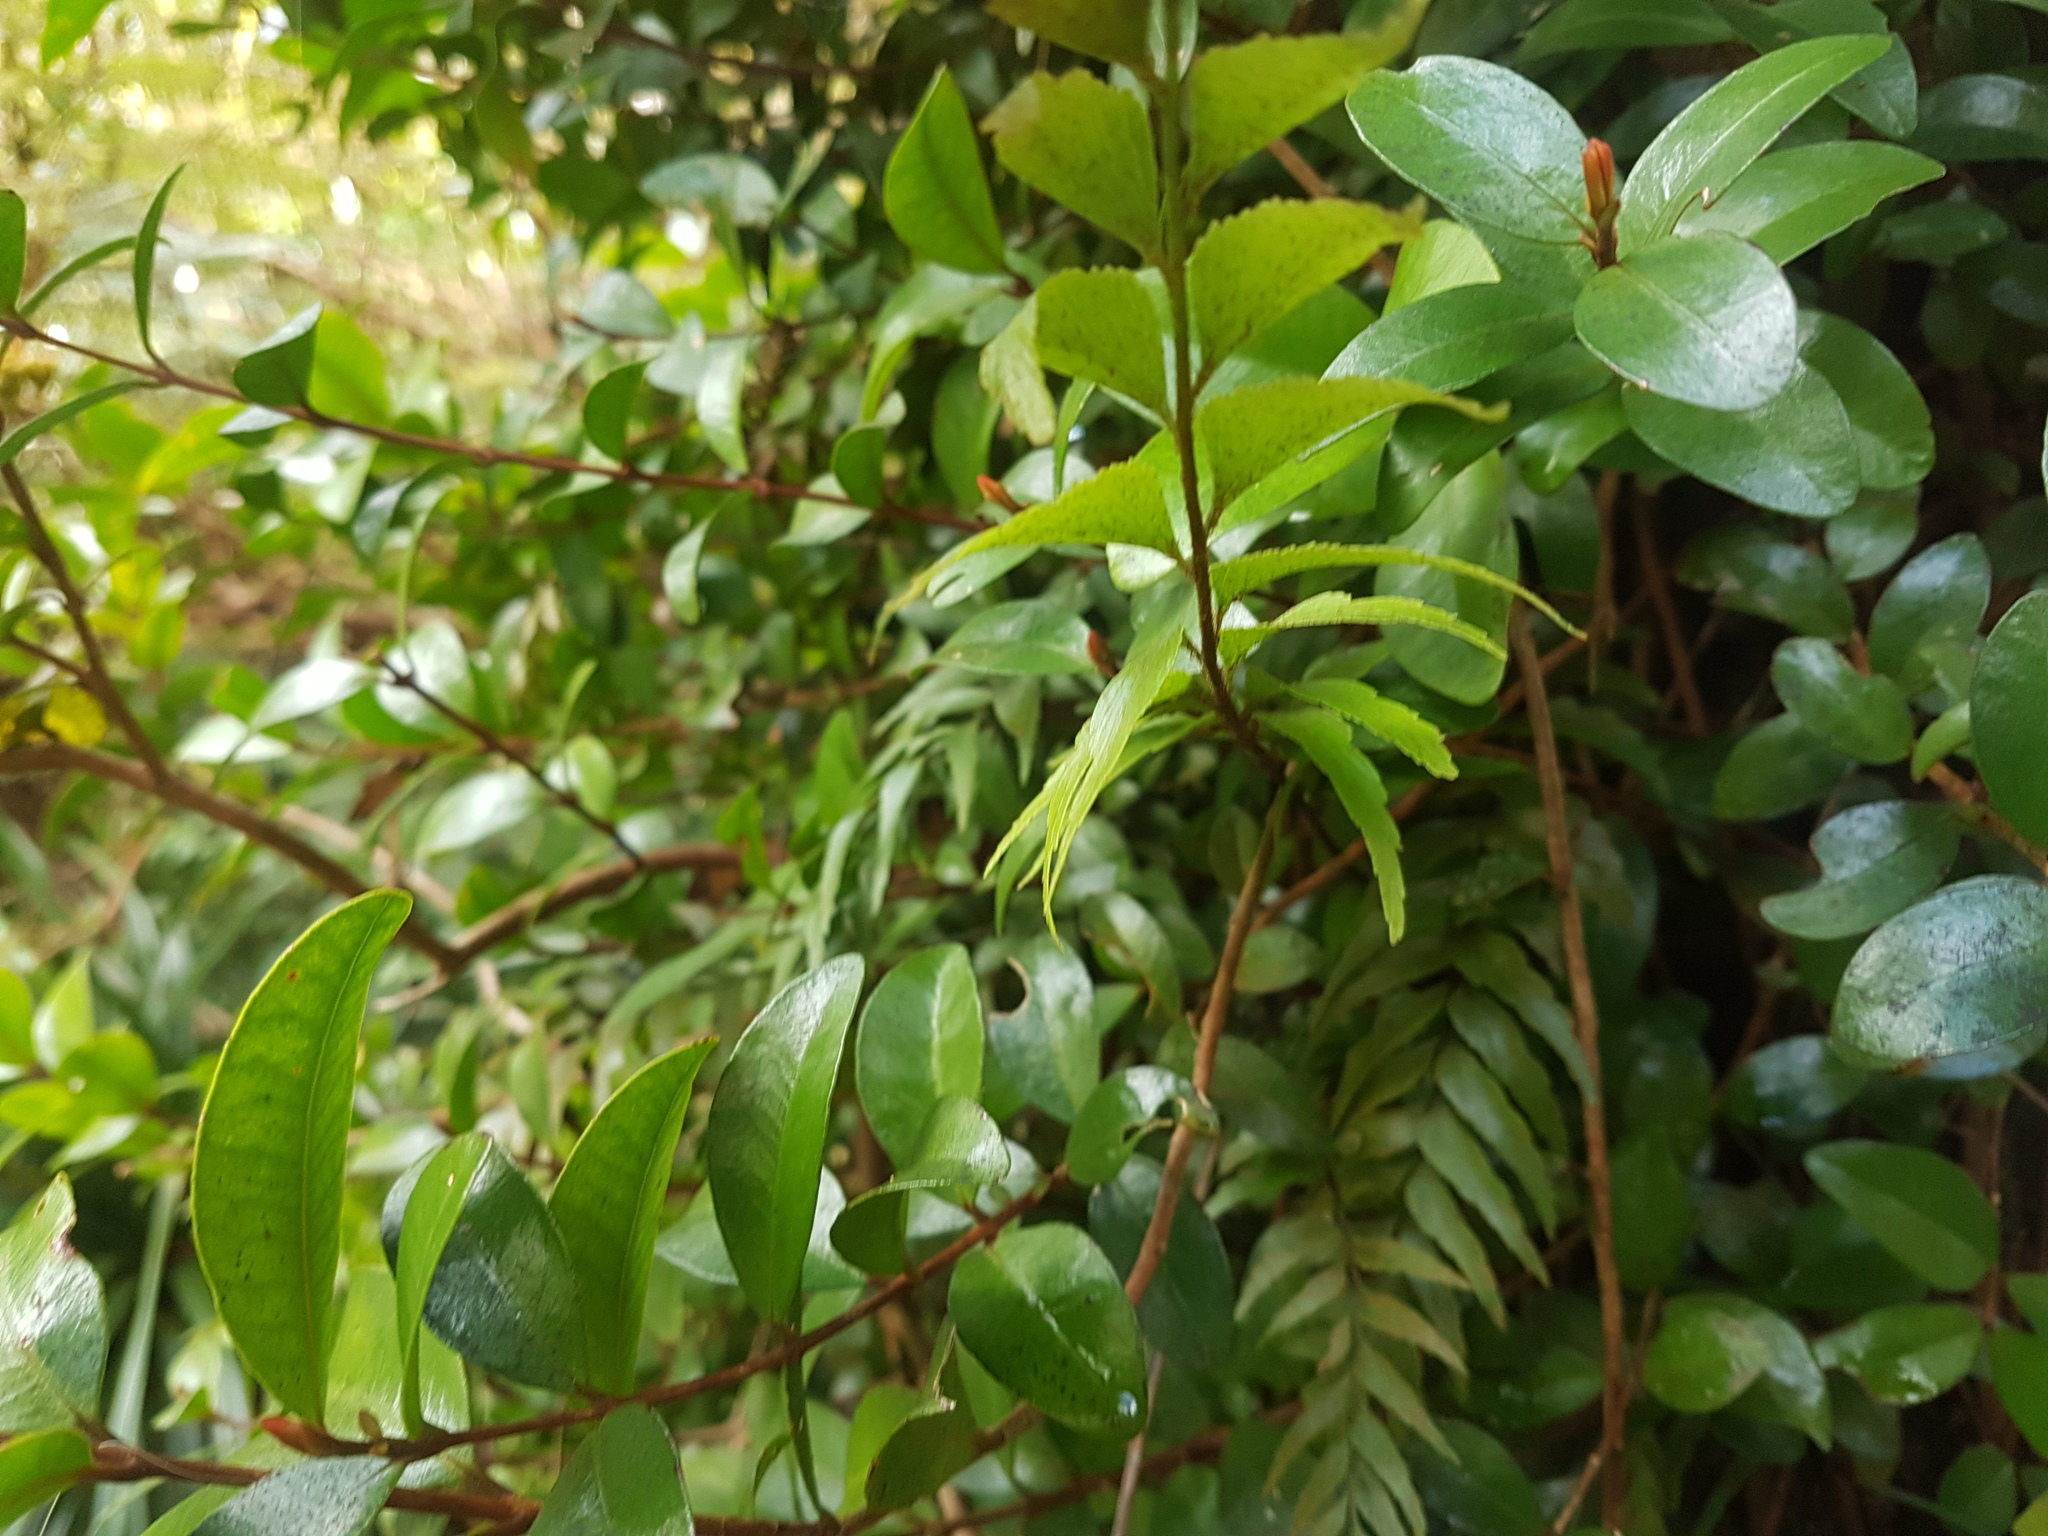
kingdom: Plantae
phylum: Tracheophyta
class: Polypodiopsida
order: Polypodiales
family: Aspleniaceae
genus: Asplenium
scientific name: Asplenium polyodon
